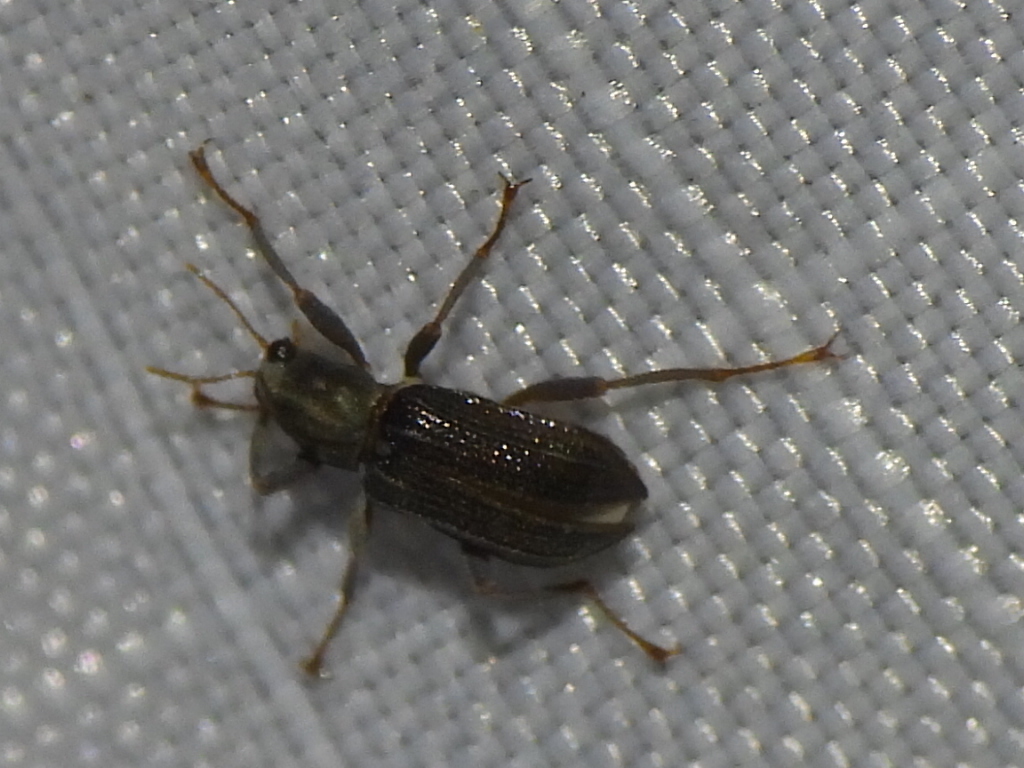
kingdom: Animalia
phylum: Arthropoda
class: Insecta
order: Coleoptera
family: Elmidae
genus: Stenelmis
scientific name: Stenelmis
